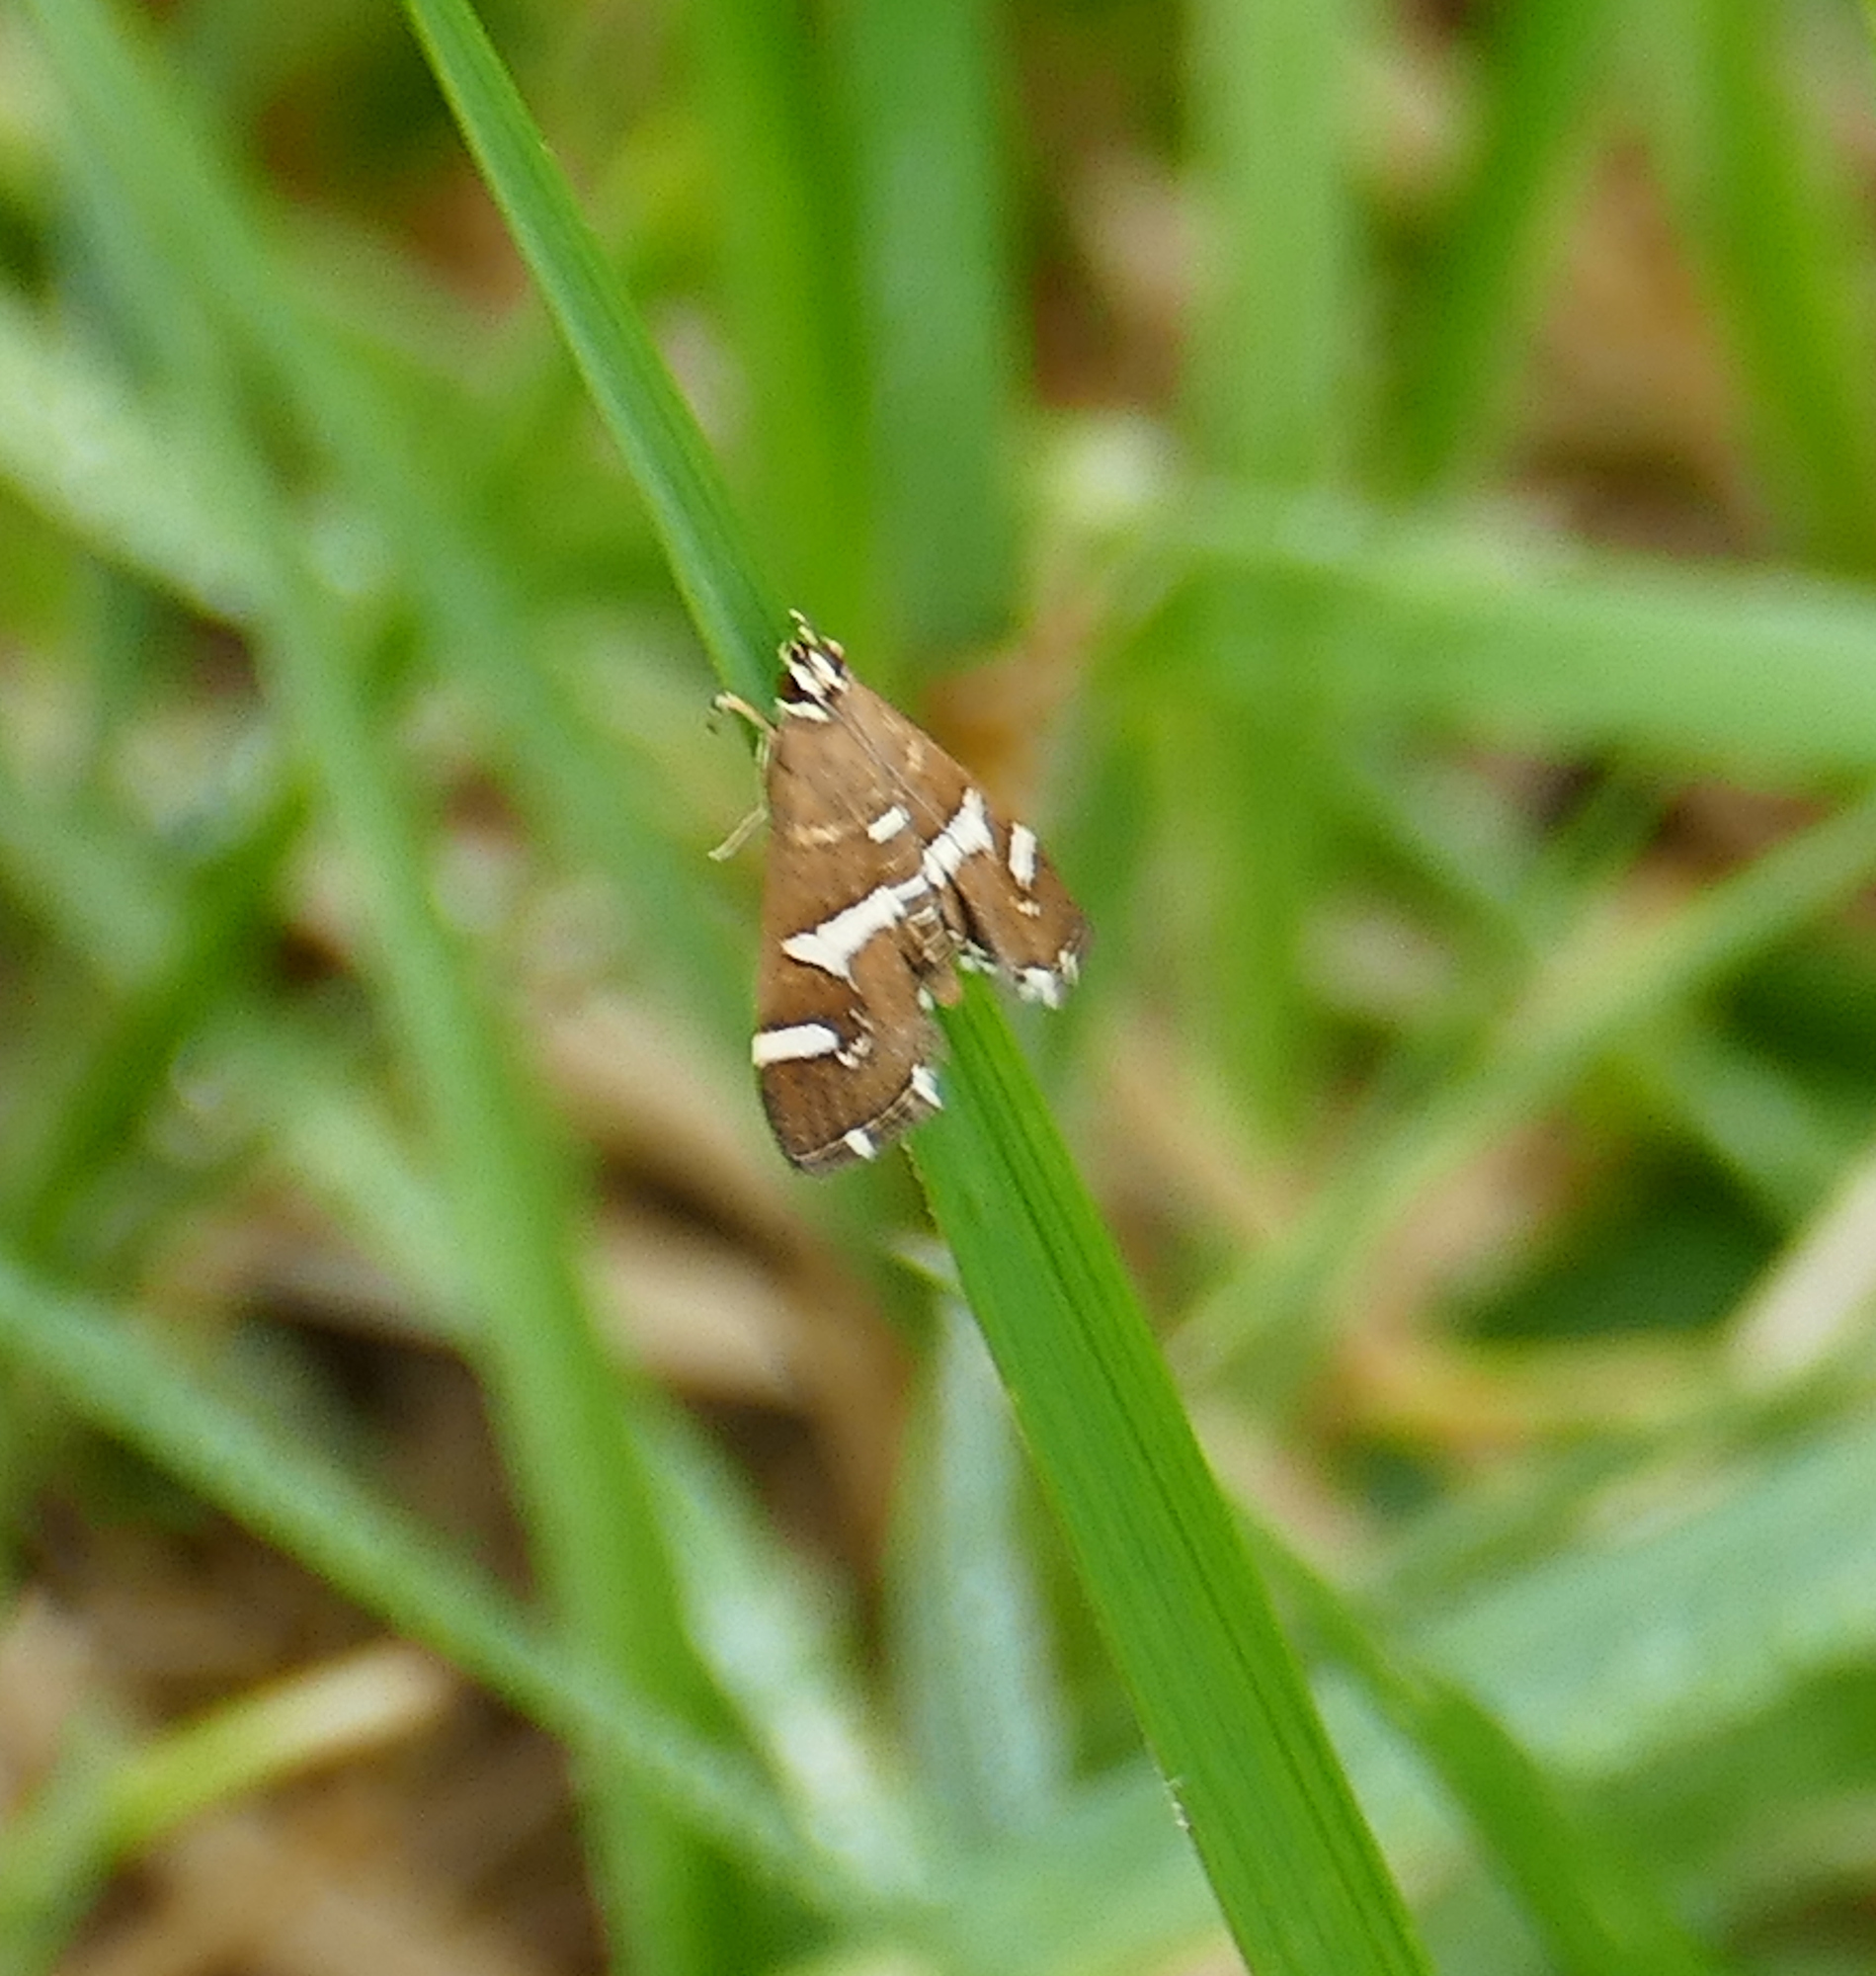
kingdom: Animalia
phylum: Arthropoda
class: Insecta
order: Lepidoptera
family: Crambidae
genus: Spoladea
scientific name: Spoladea recurvalis
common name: Beet webworm moth
